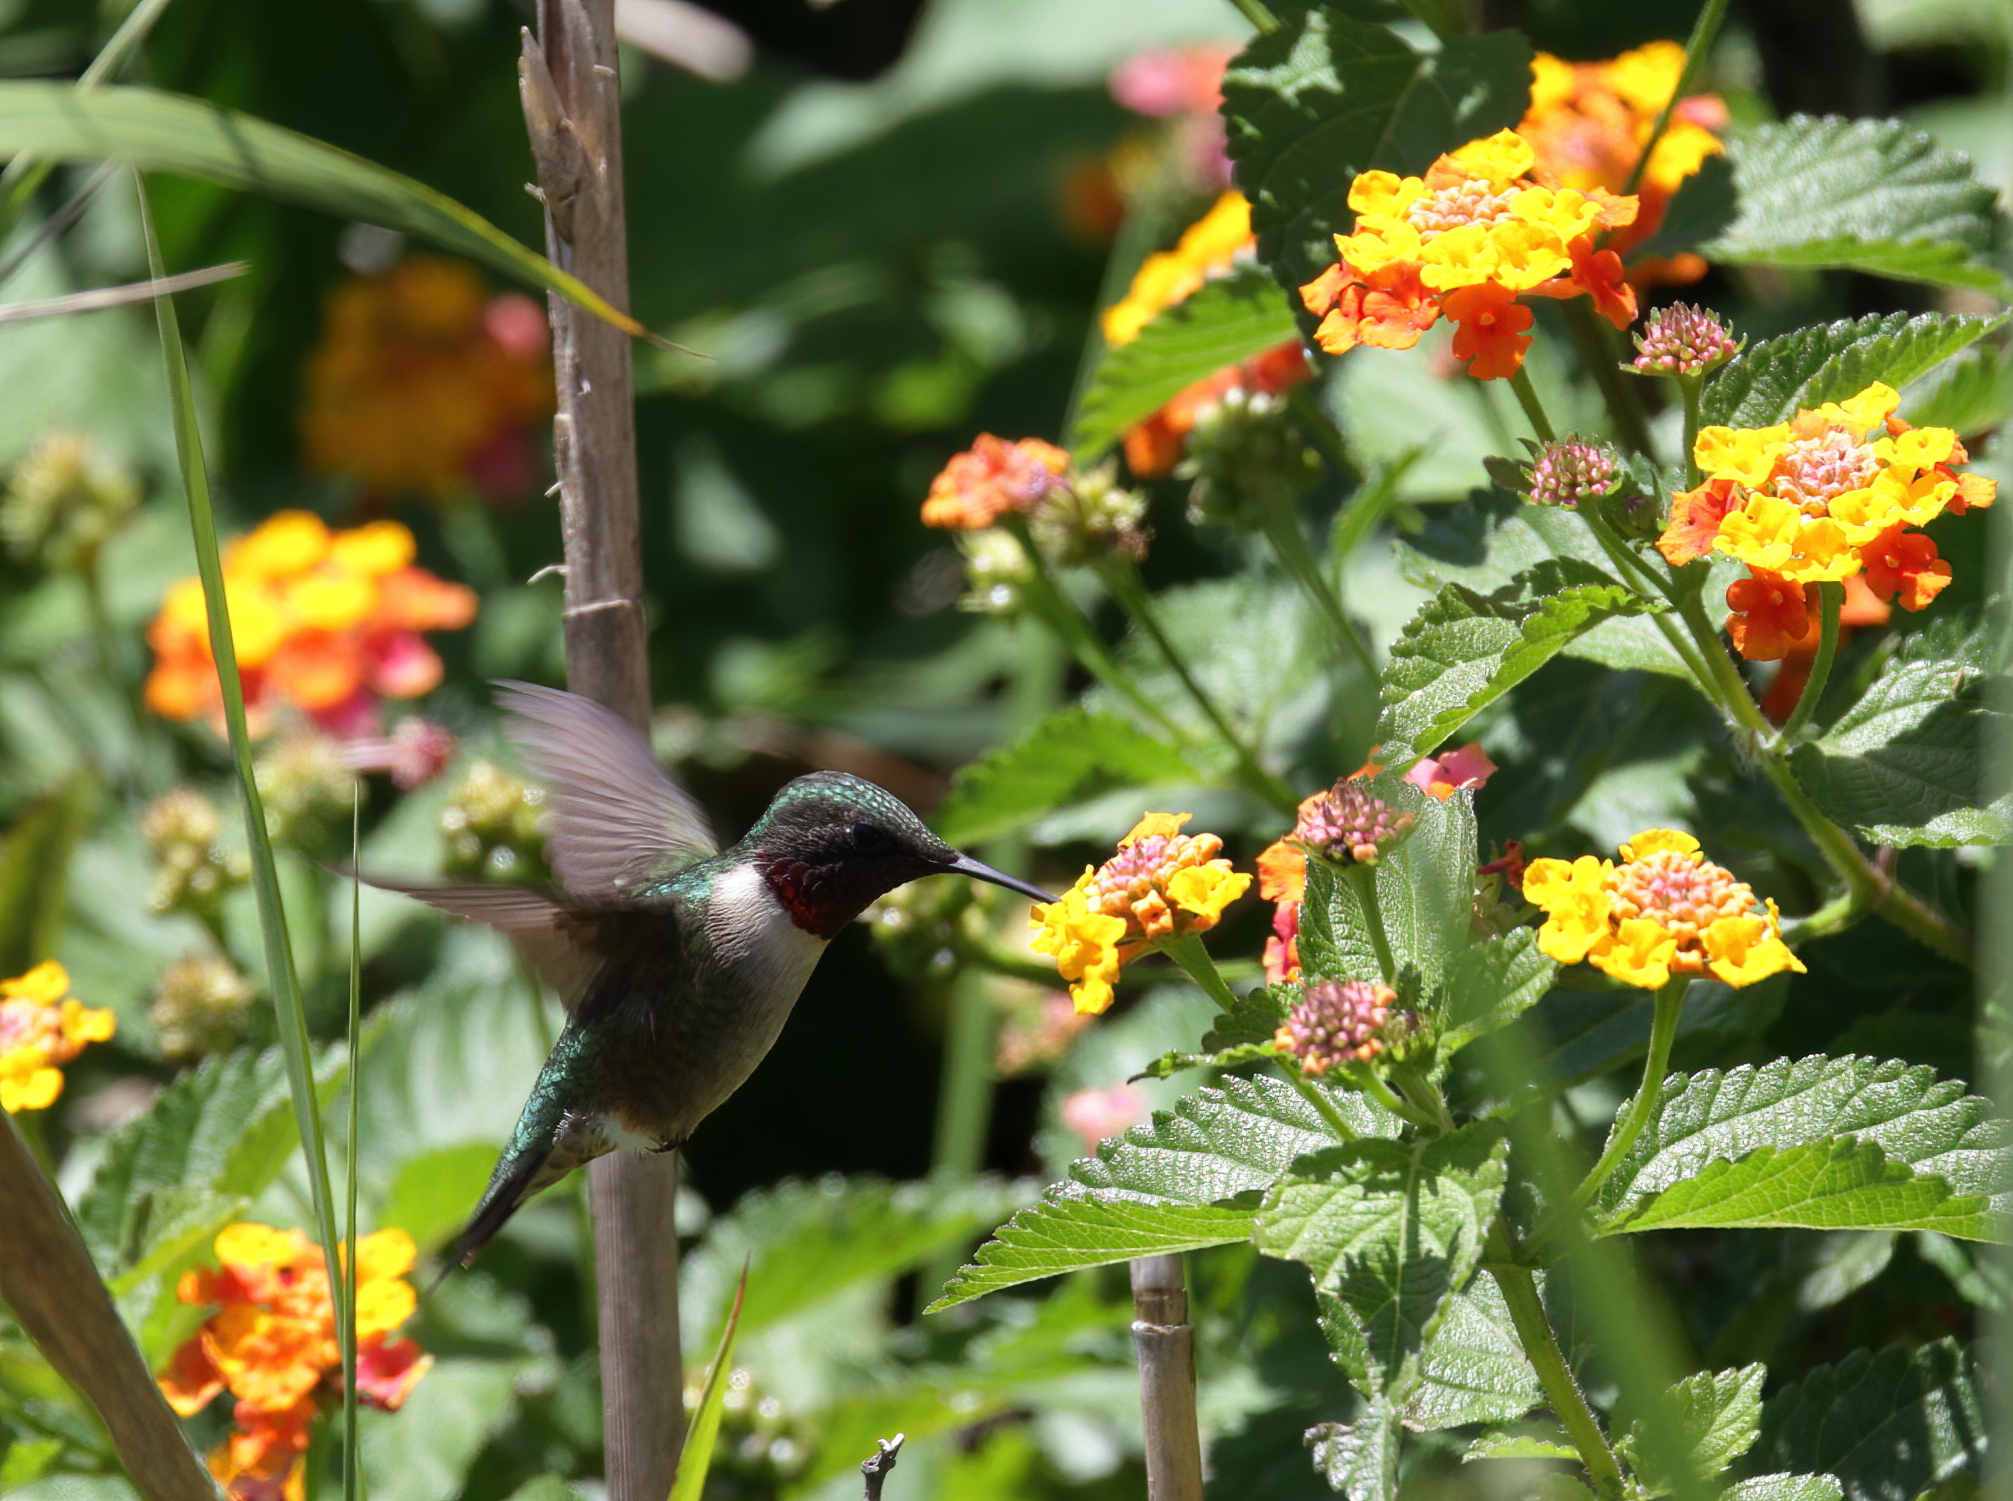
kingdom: Animalia
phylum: Chordata
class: Aves
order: Apodiformes
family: Trochilidae
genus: Archilochus
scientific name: Archilochus colubris
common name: Ruby-throated hummingbird
